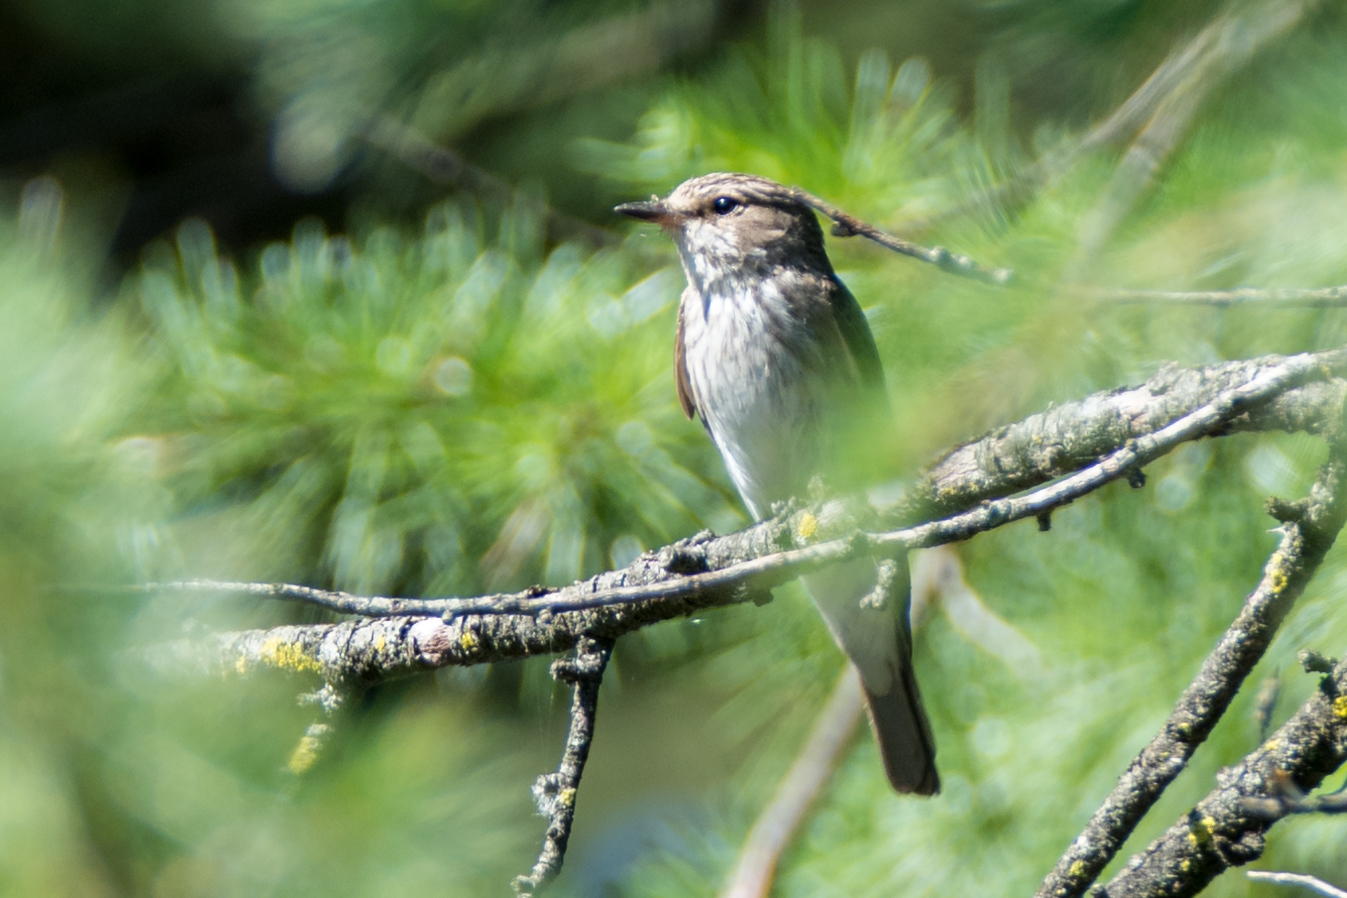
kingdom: Animalia
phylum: Chordata
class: Aves
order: Passeriformes
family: Muscicapidae
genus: Muscicapa
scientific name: Muscicapa striata
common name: Spotted flycatcher
